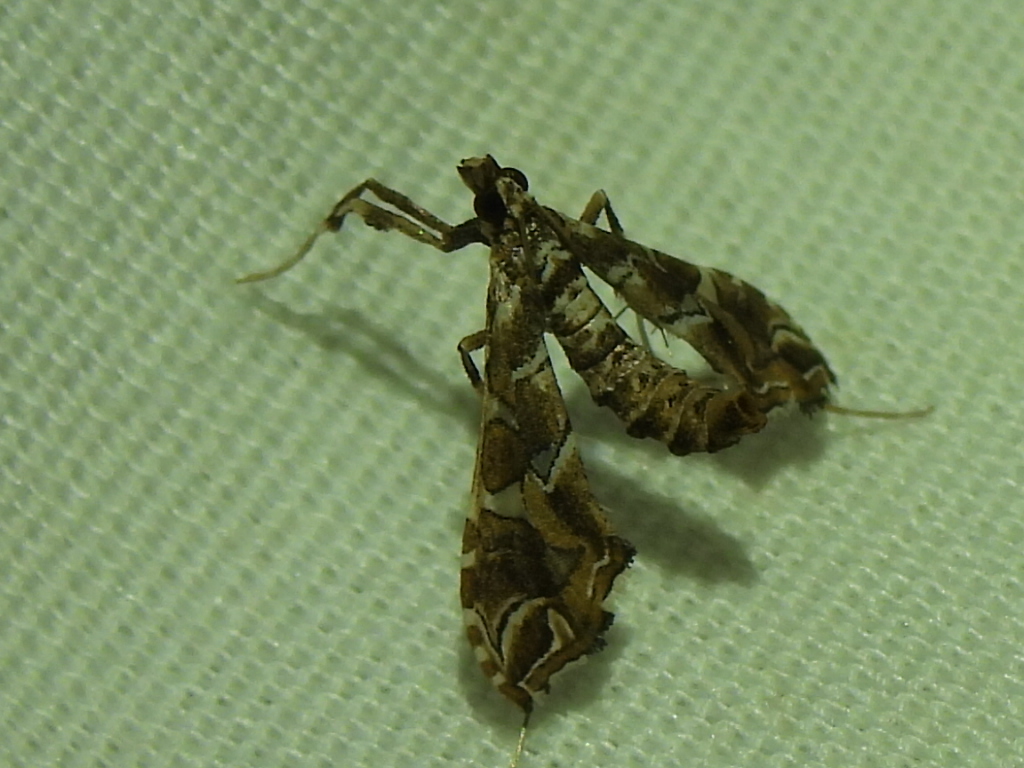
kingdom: Animalia
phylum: Arthropoda
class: Insecta
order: Lepidoptera
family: Crambidae
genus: Lineodes
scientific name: Lineodes vulnifica
